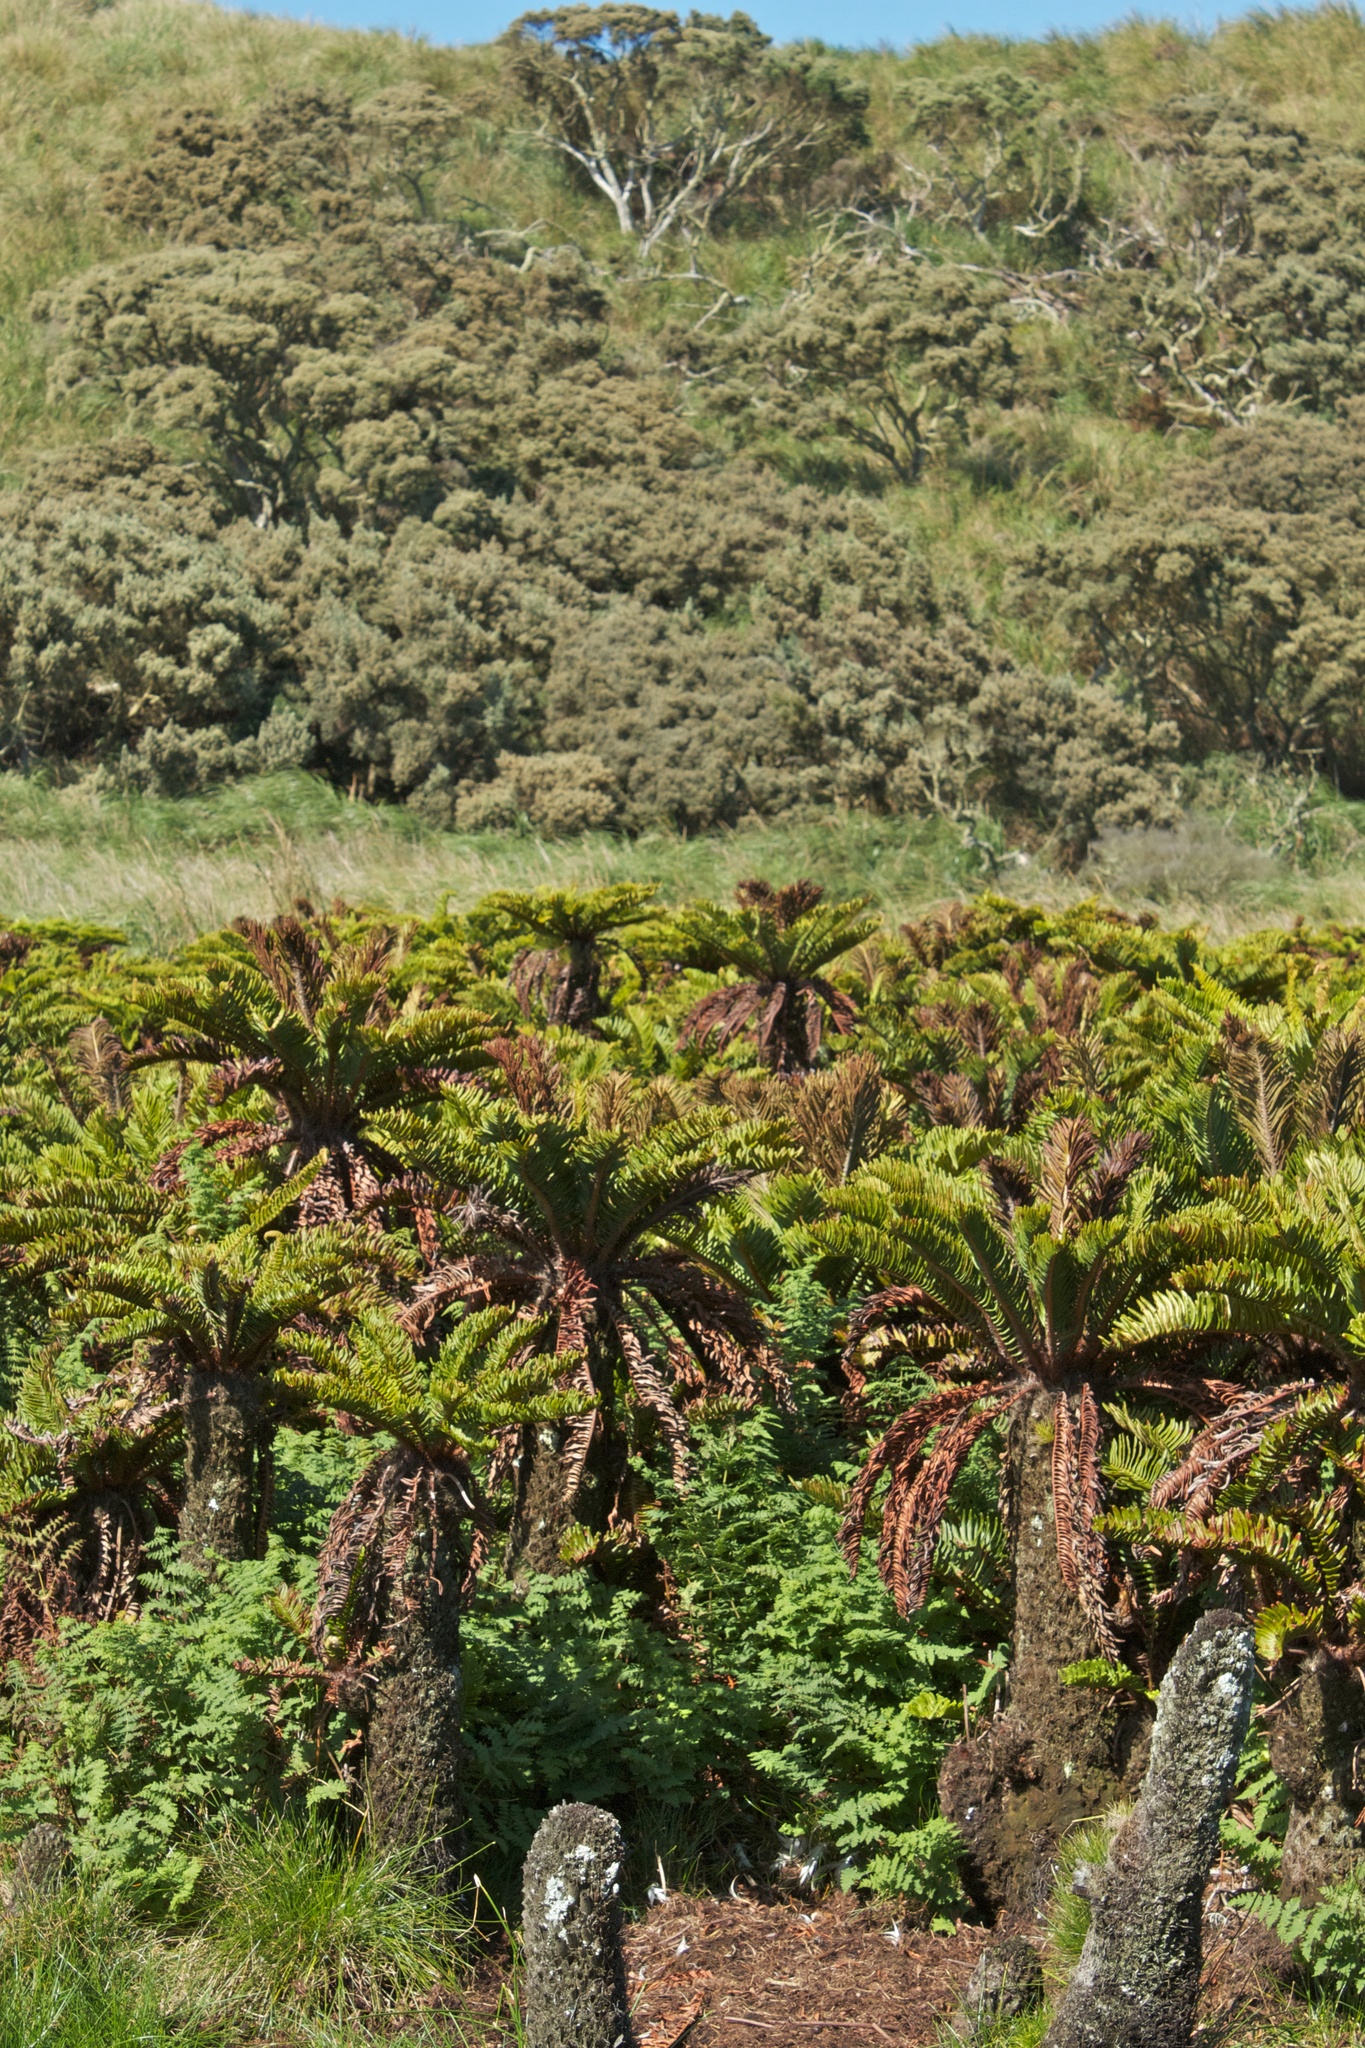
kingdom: Plantae
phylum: Tracheophyta
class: Polypodiopsida
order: Polypodiales
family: Blechnaceae
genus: Lomariocycas
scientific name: Lomariocycas palmiformis
